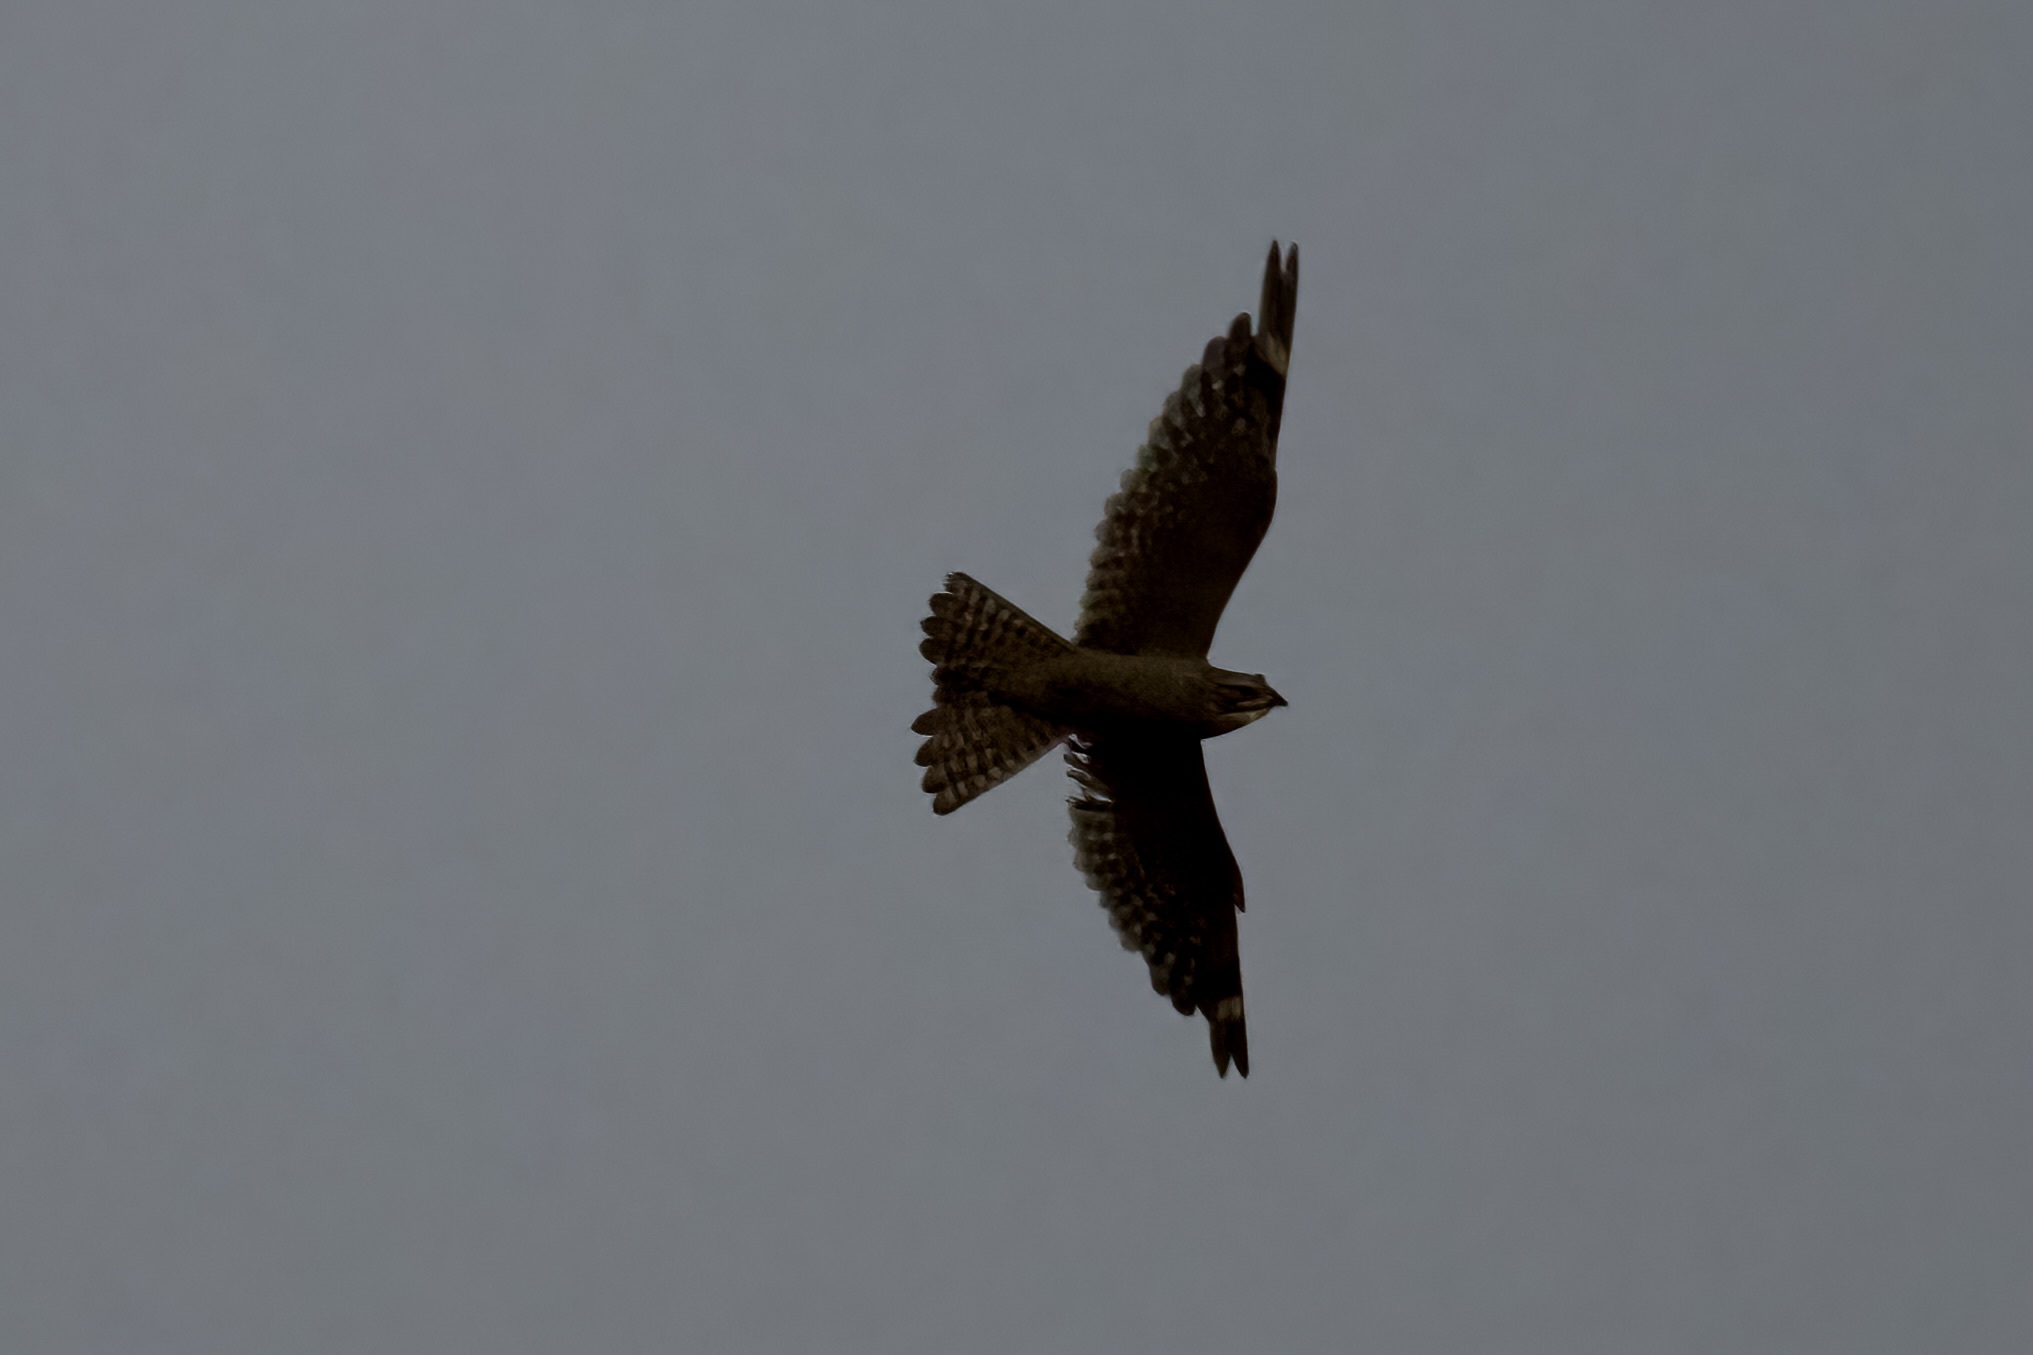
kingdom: Animalia
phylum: Chordata
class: Aves
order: Caprimulgiformes
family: Caprimulgidae
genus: Chordeiles
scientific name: Chordeiles acutipennis
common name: Lesser nighthawk
